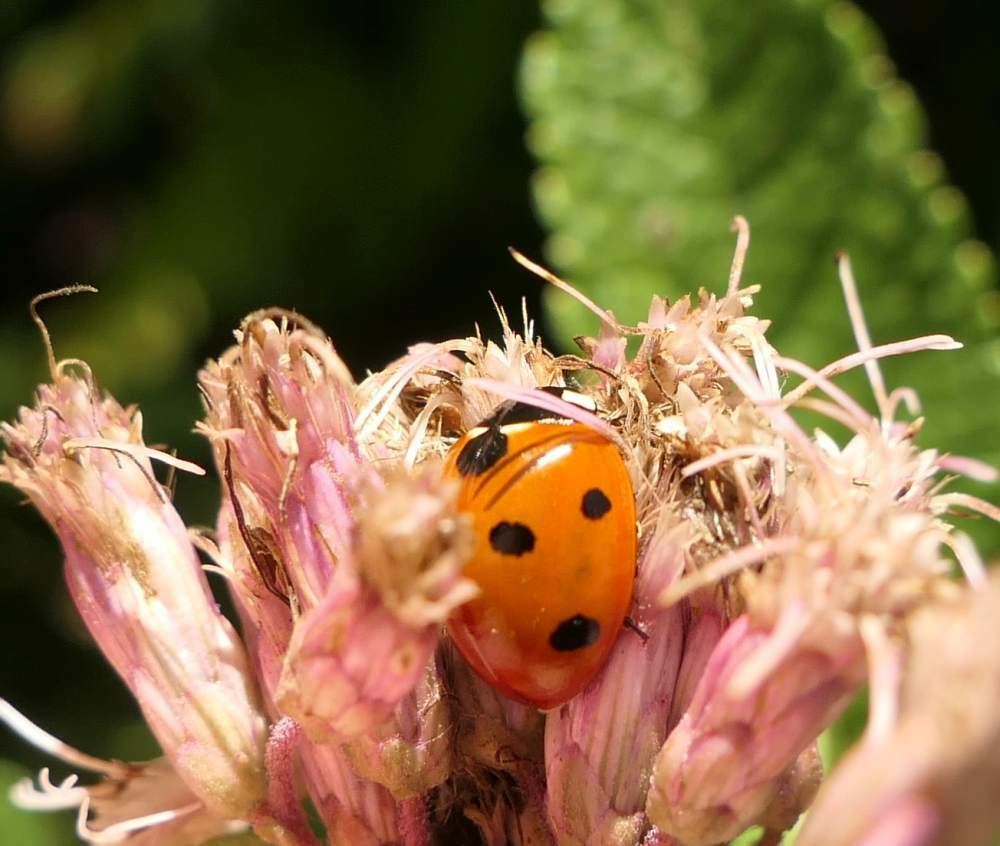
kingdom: Animalia
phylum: Arthropoda
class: Insecta
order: Coleoptera
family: Coccinellidae
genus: Coccinella
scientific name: Coccinella septempunctata
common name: Sevenspotted lady beetle
